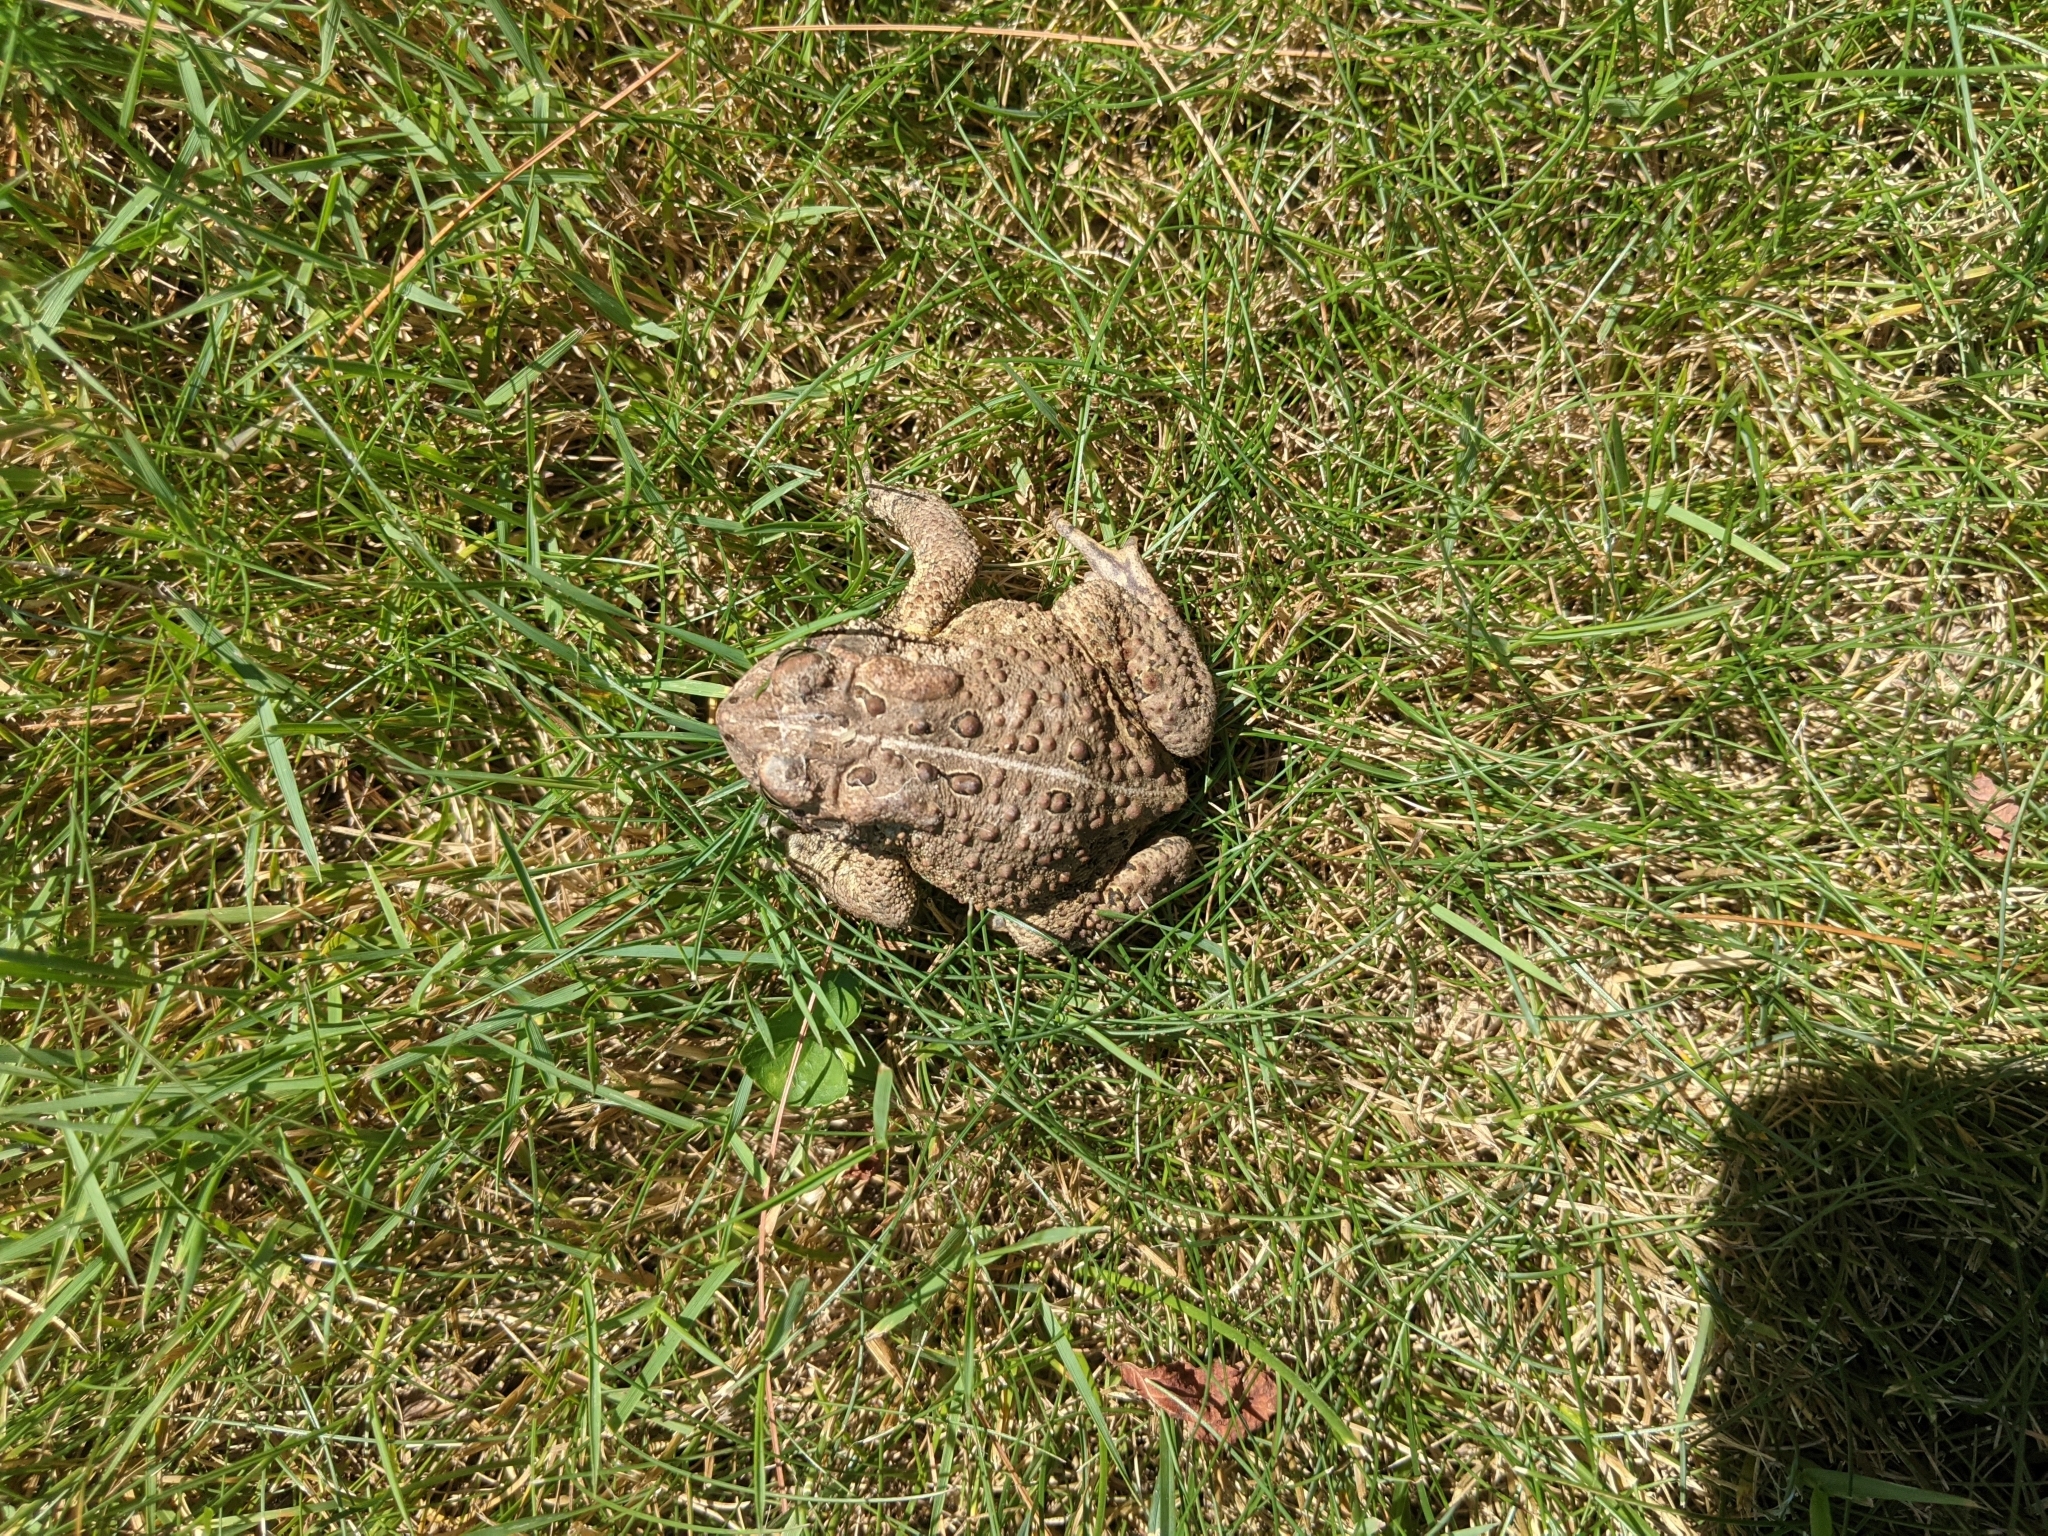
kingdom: Animalia
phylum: Chordata
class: Amphibia
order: Anura
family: Bufonidae
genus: Anaxyrus
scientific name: Anaxyrus americanus
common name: American toad
